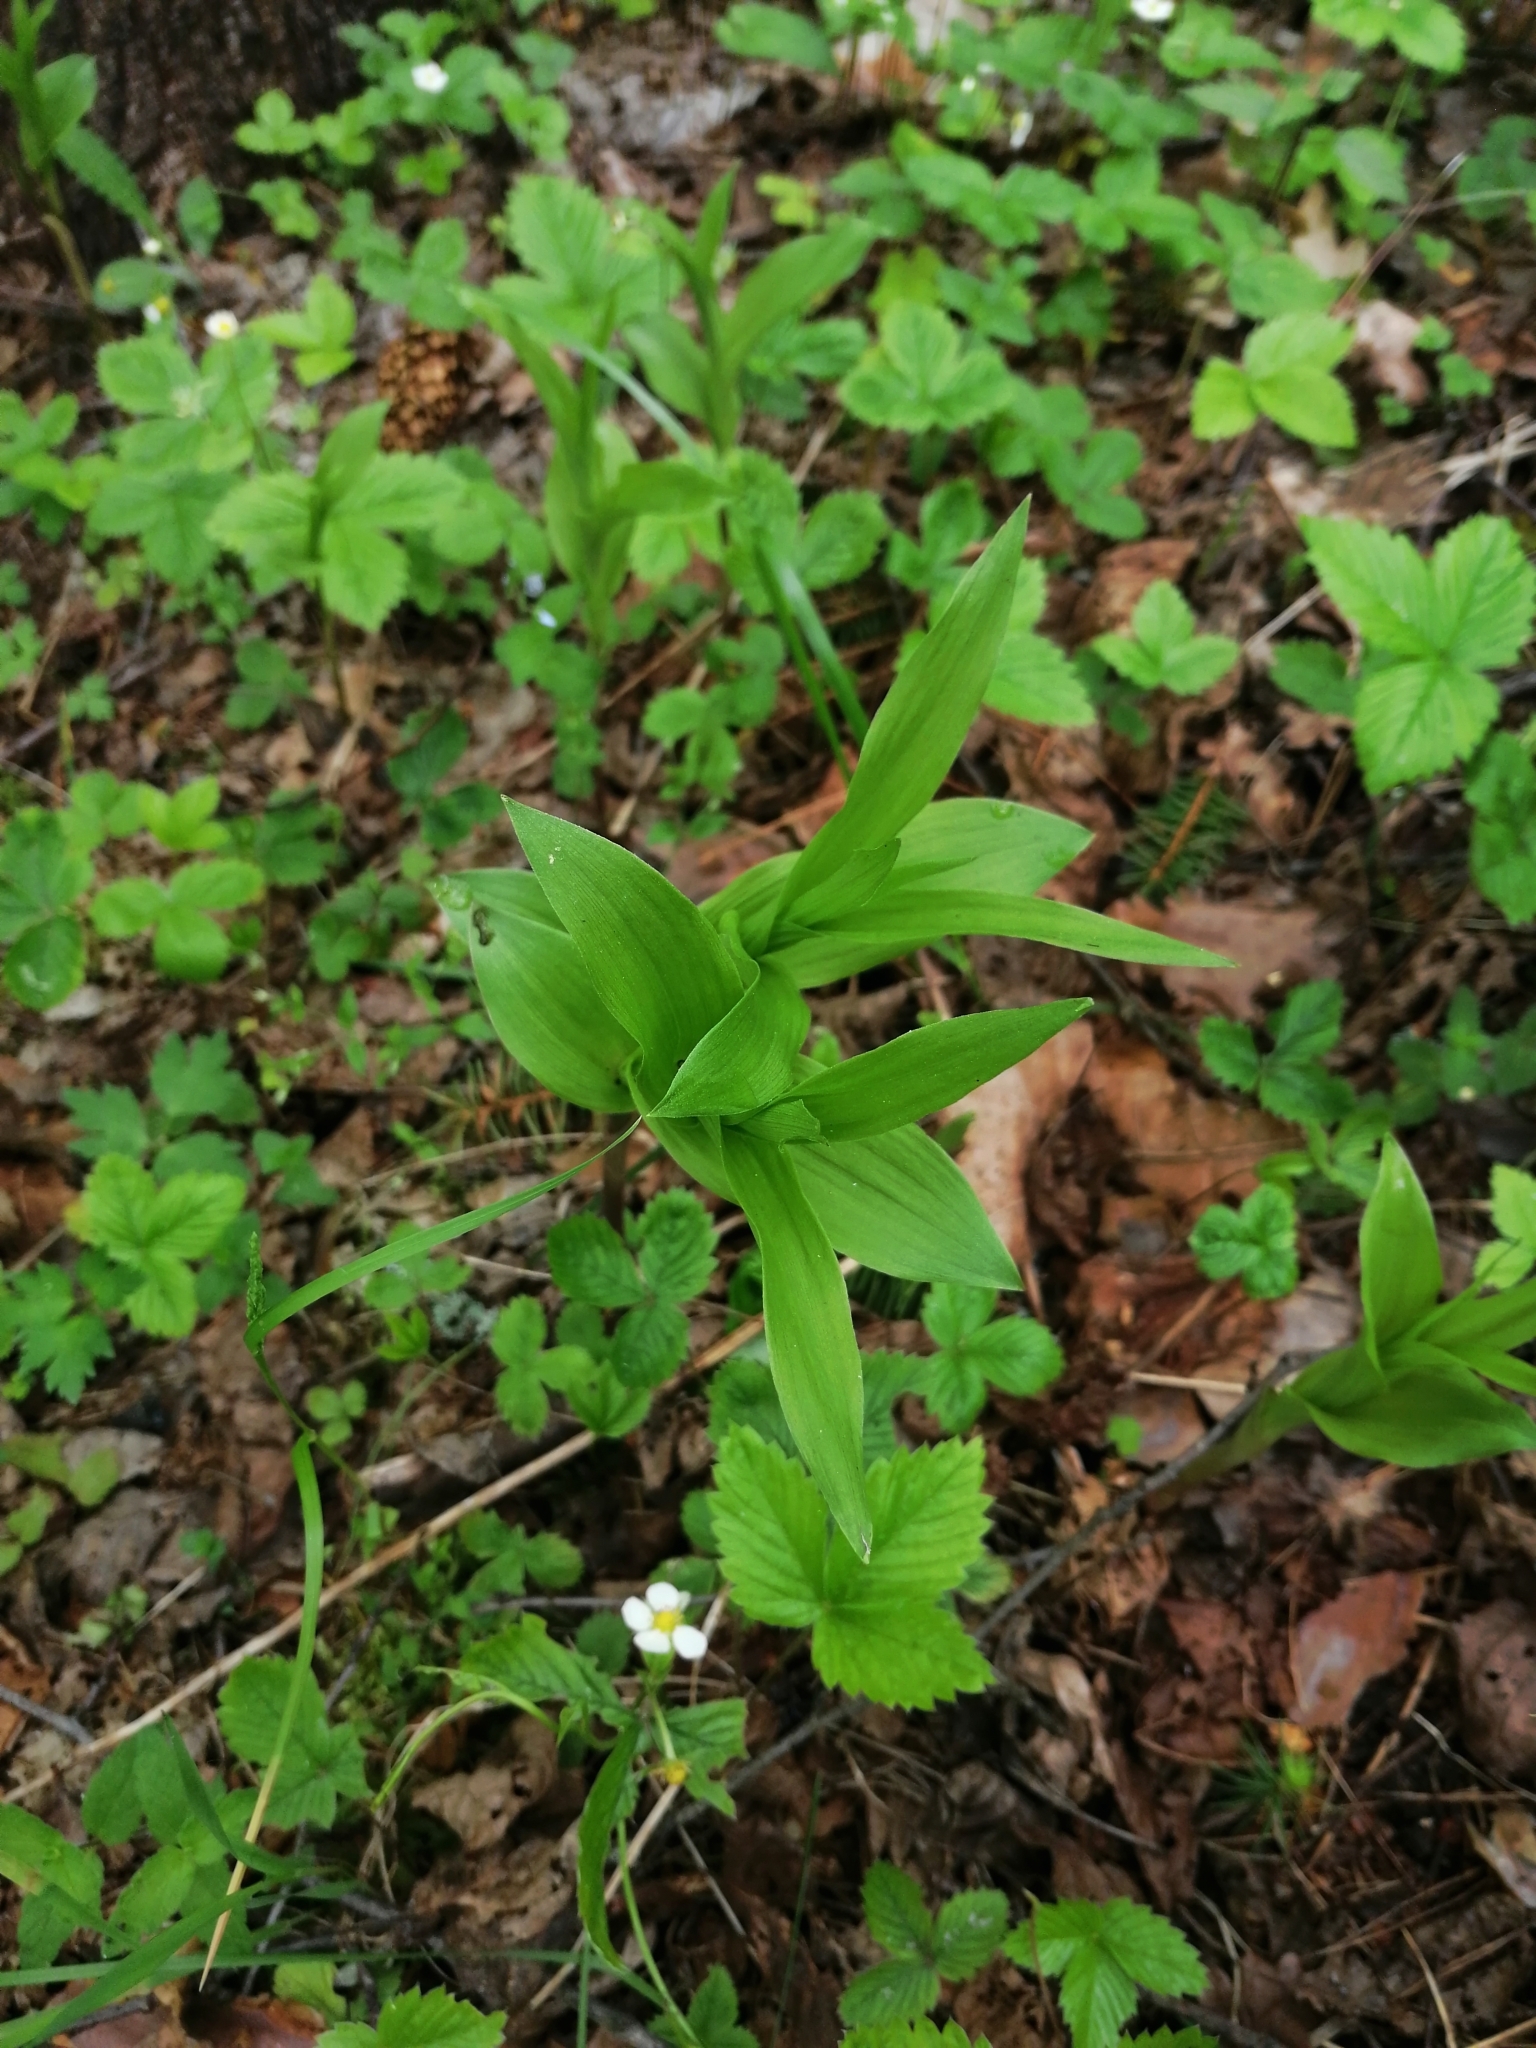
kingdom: Plantae
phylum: Tracheophyta
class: Liliopsida
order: Asparagales
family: Orchidaceae
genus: Epipactis
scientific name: Epipactis helleborine
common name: Broad-leaved helleborine
